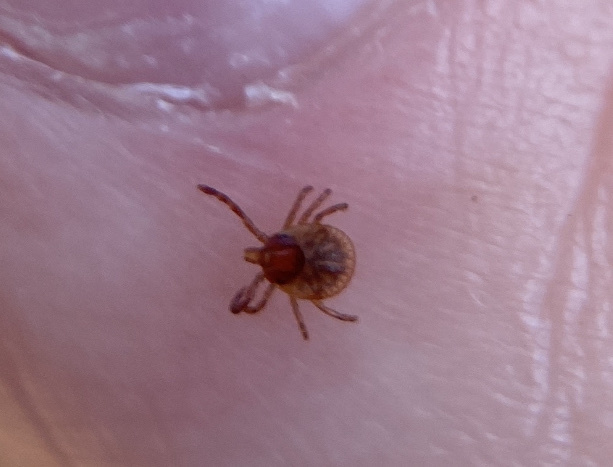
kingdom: Animalia
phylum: Arthropoda
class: Arachnida
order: Ixodida
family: Ixodidae
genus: Amblyomma
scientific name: Amblyomma americanum
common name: Lone star tick
